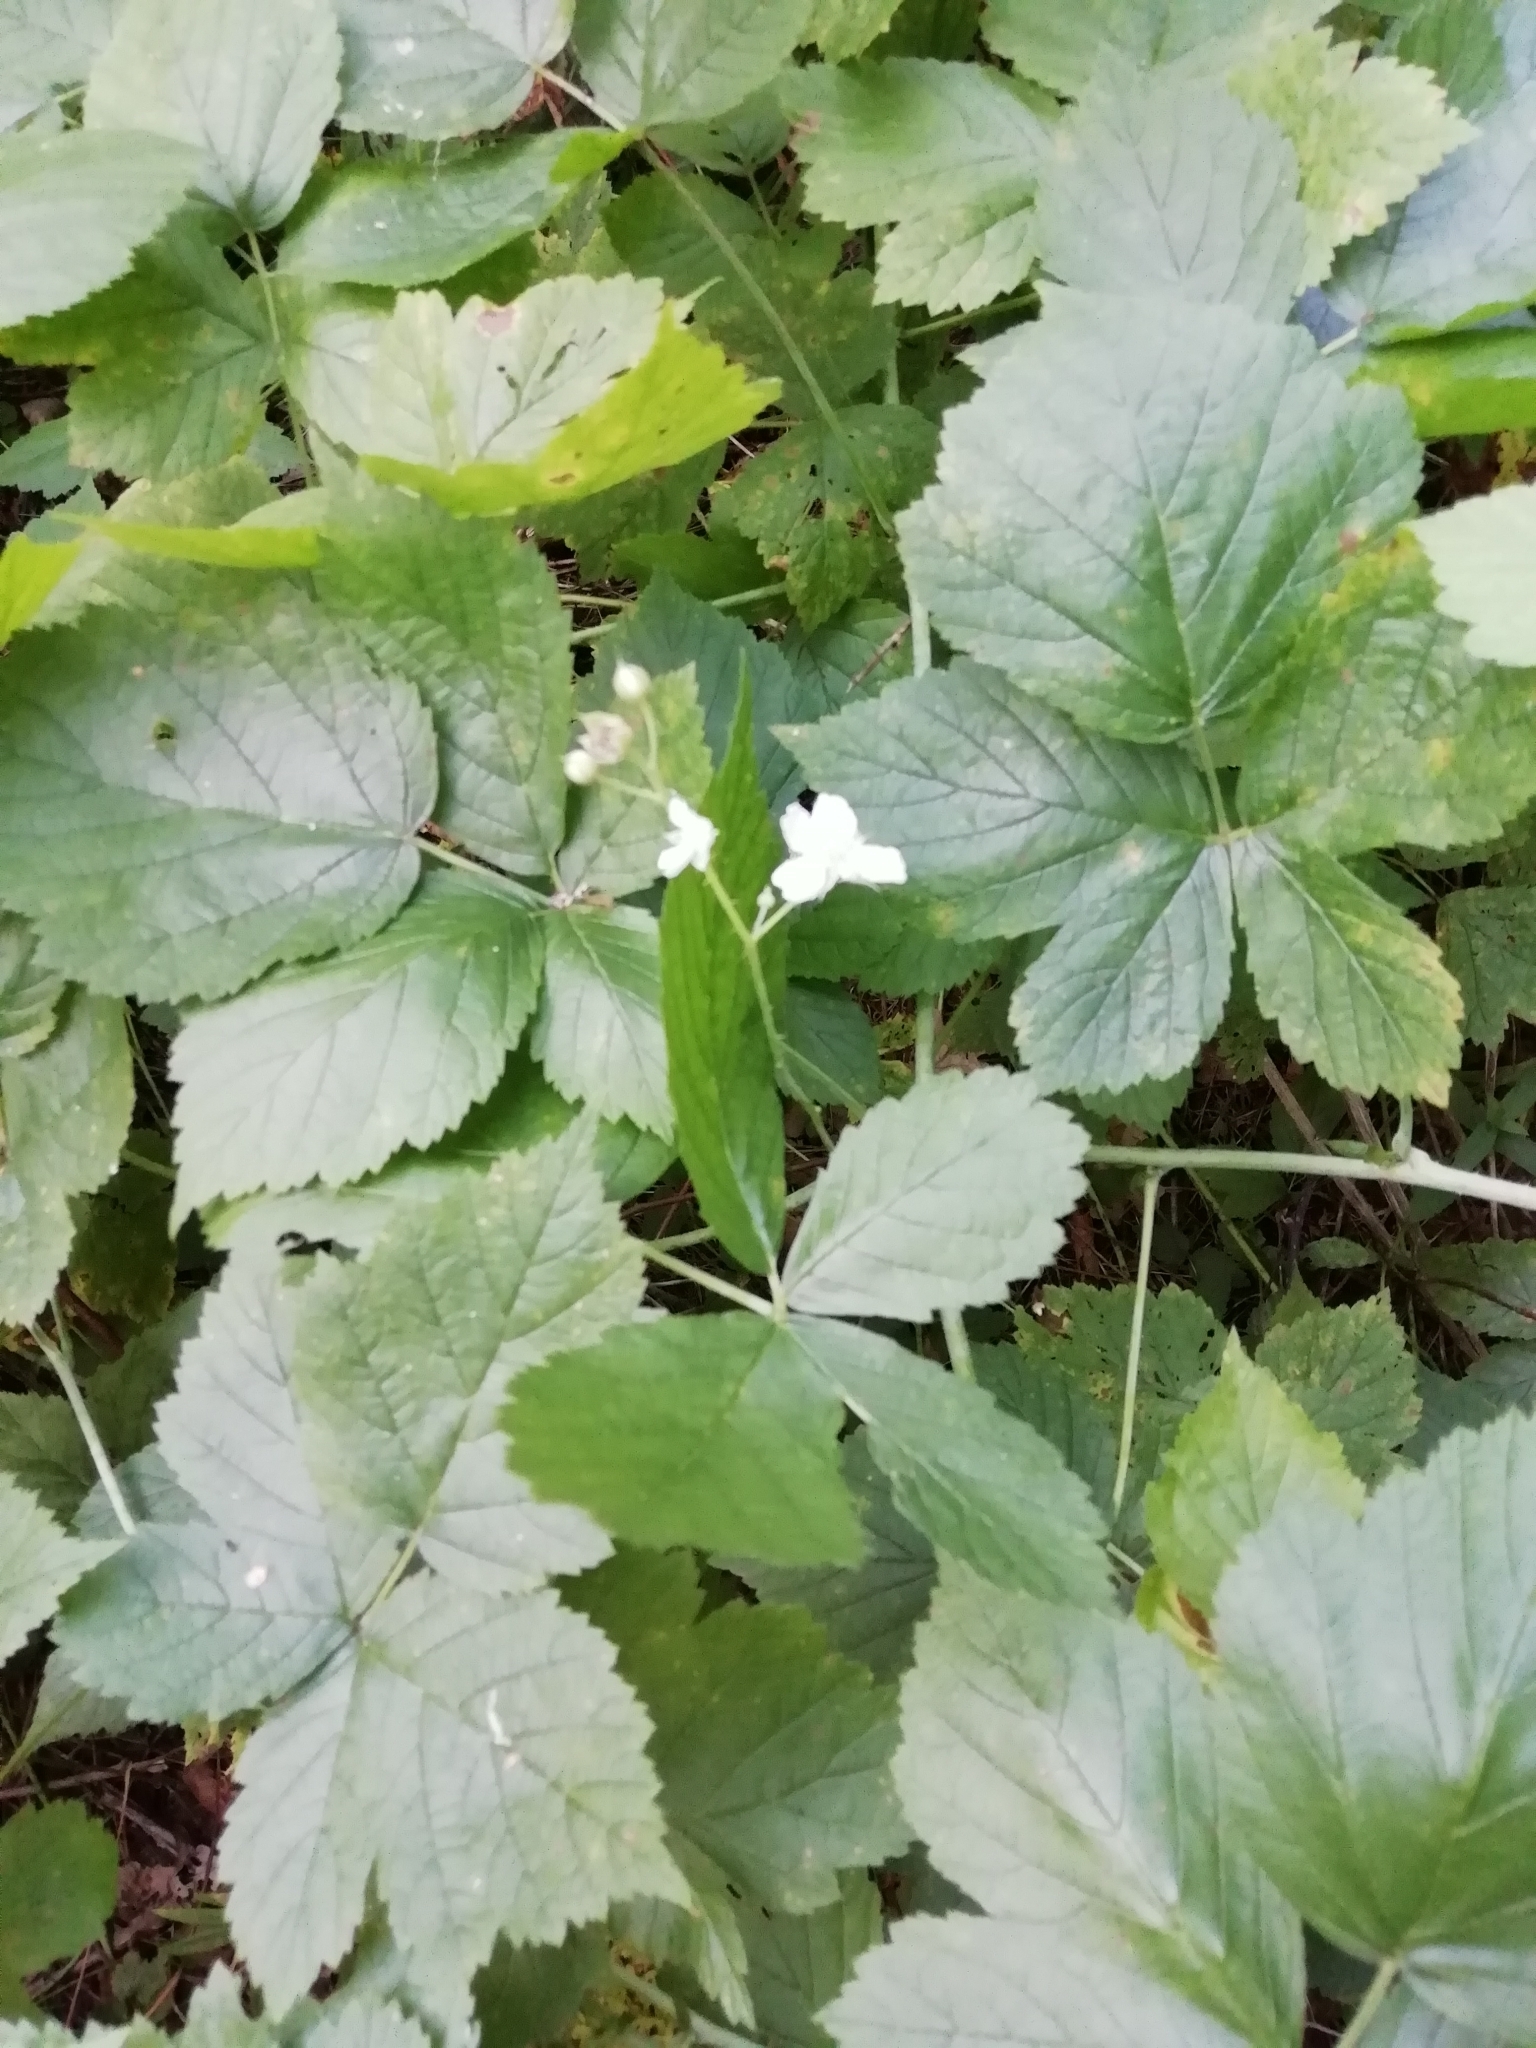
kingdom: Plantae
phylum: Tracheophyta
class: Magnoliopsida
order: Rosales
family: Rosaceae
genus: Rubus
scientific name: Rubus caesius
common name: Dewberry
